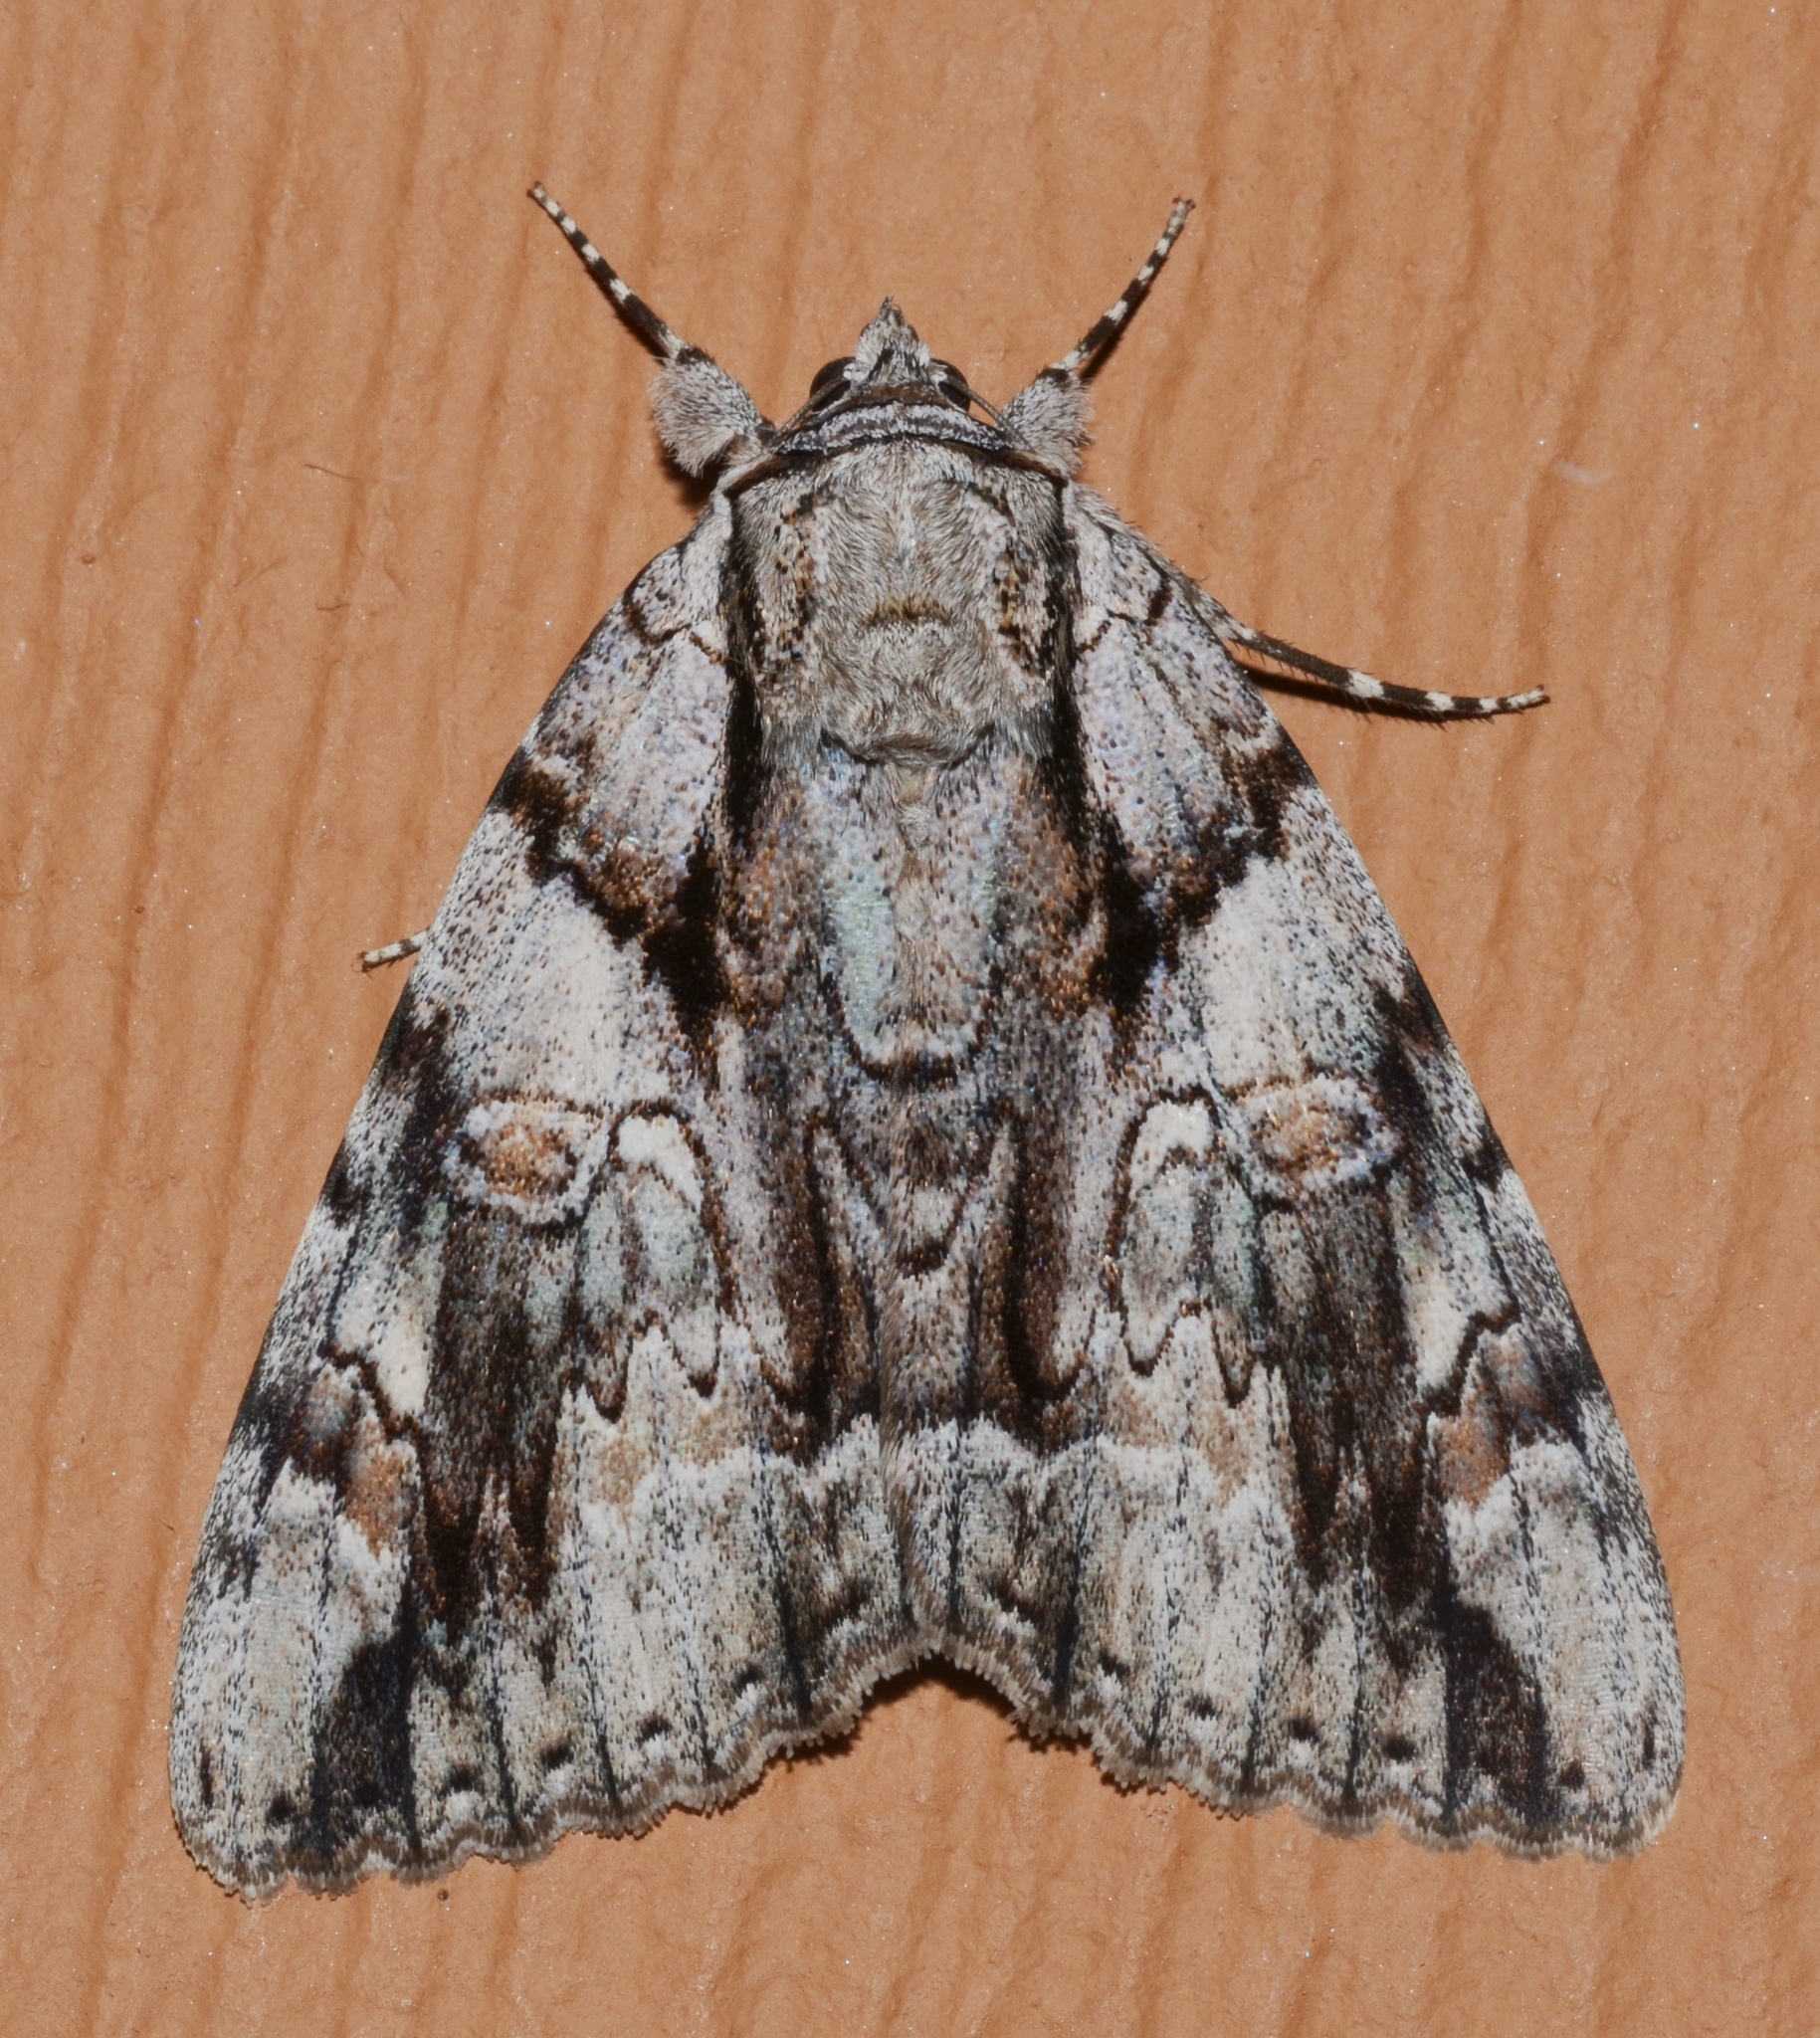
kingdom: Animalia
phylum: Arthropoda
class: Insecta
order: Lepidoptera
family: Erebidae
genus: Catocala
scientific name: Catocala vidua
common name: The widow
